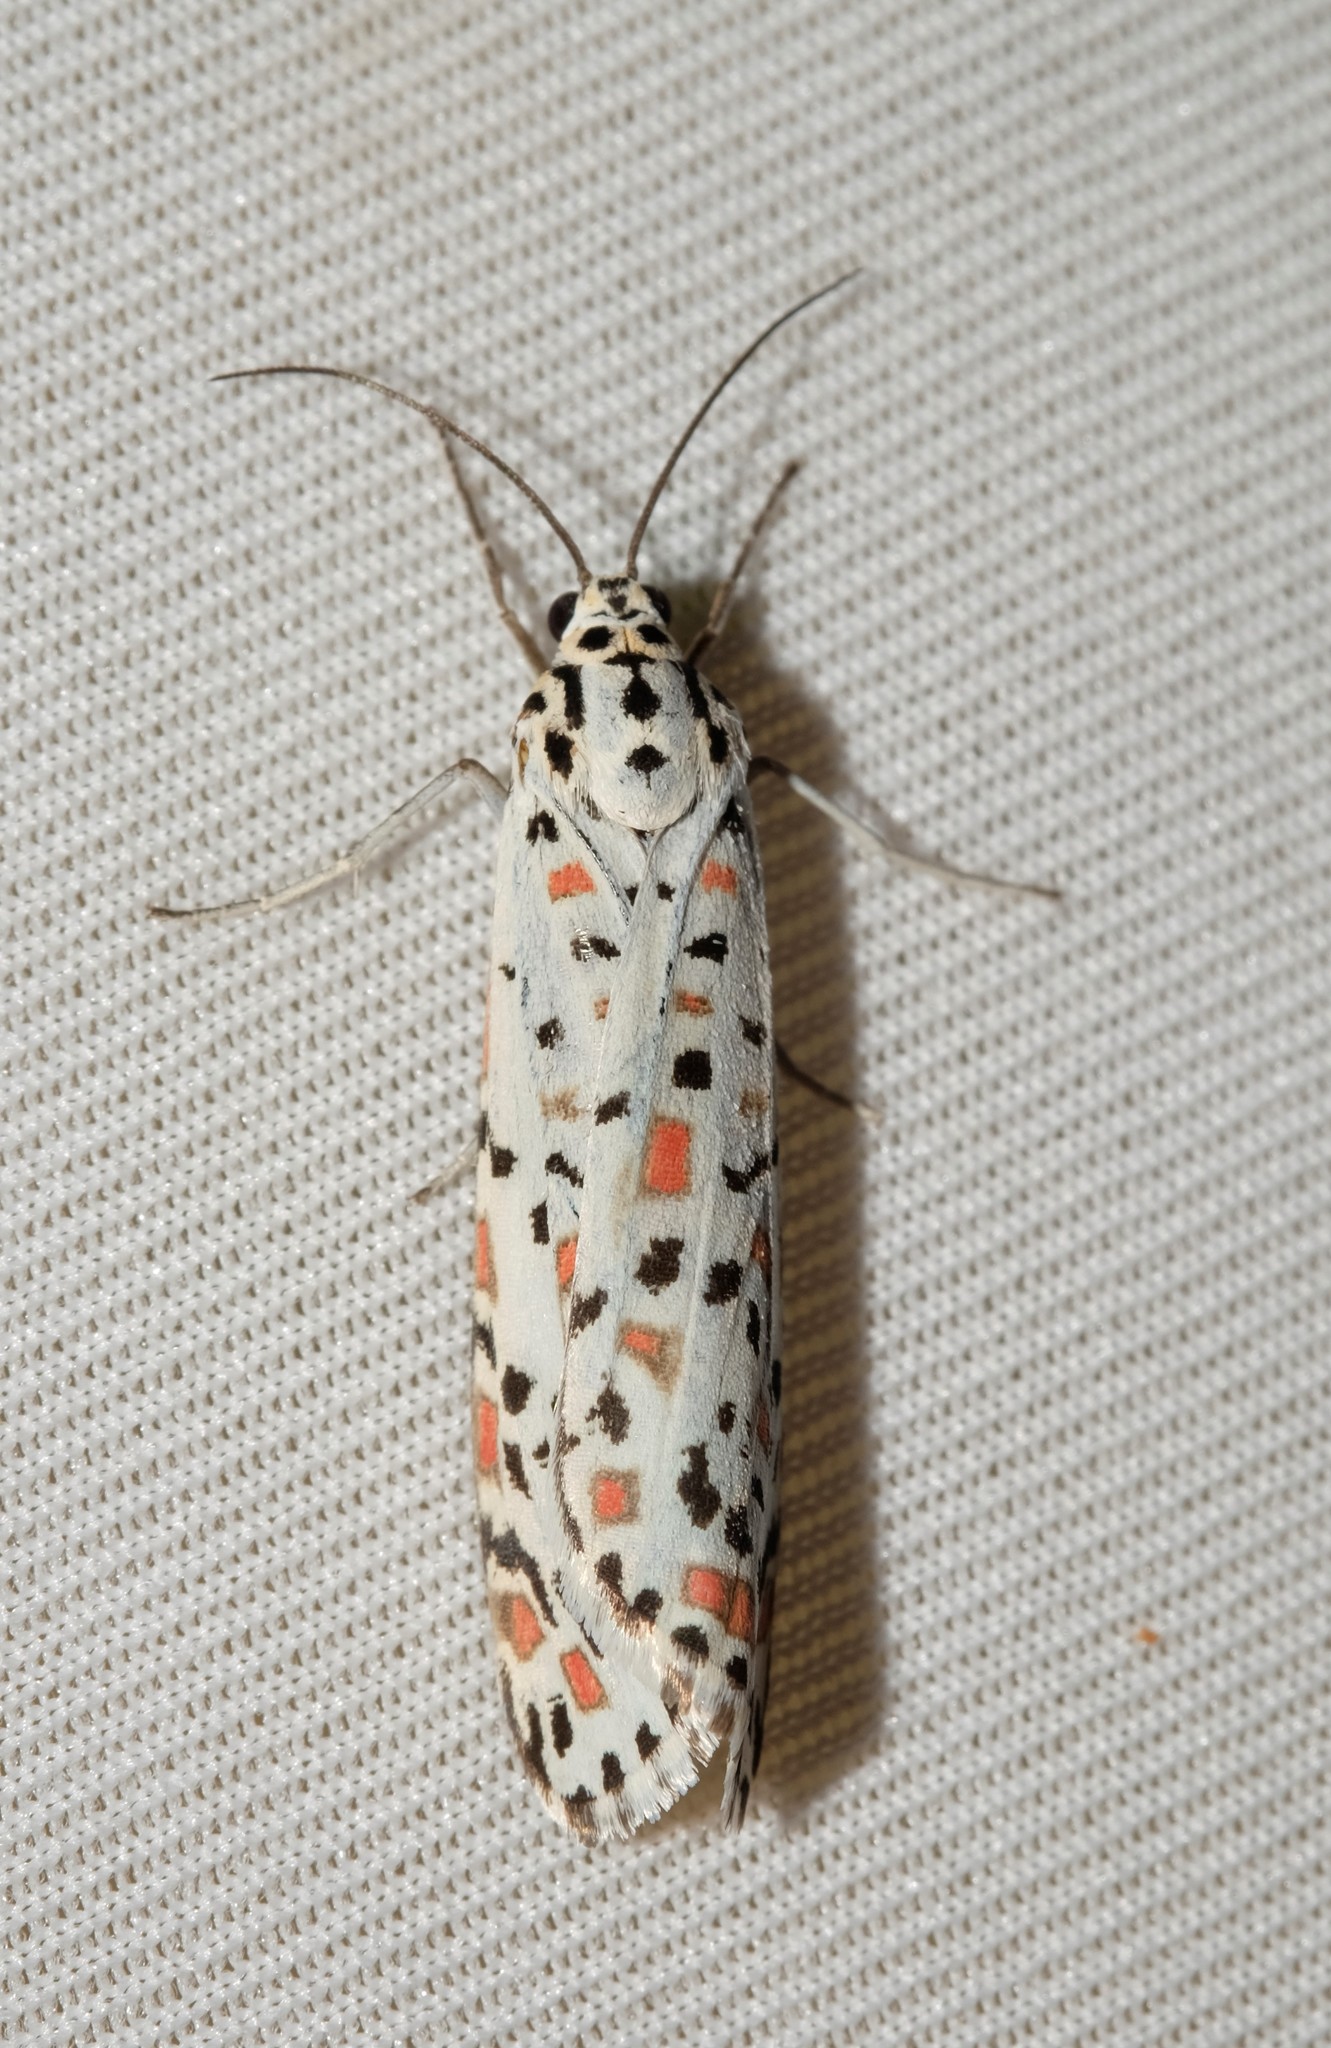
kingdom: Animalia
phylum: Arthropoda
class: Insecta
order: Lepidoptera
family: Erebidae
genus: Utetheisa
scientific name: Utetheisa pulchelloides
